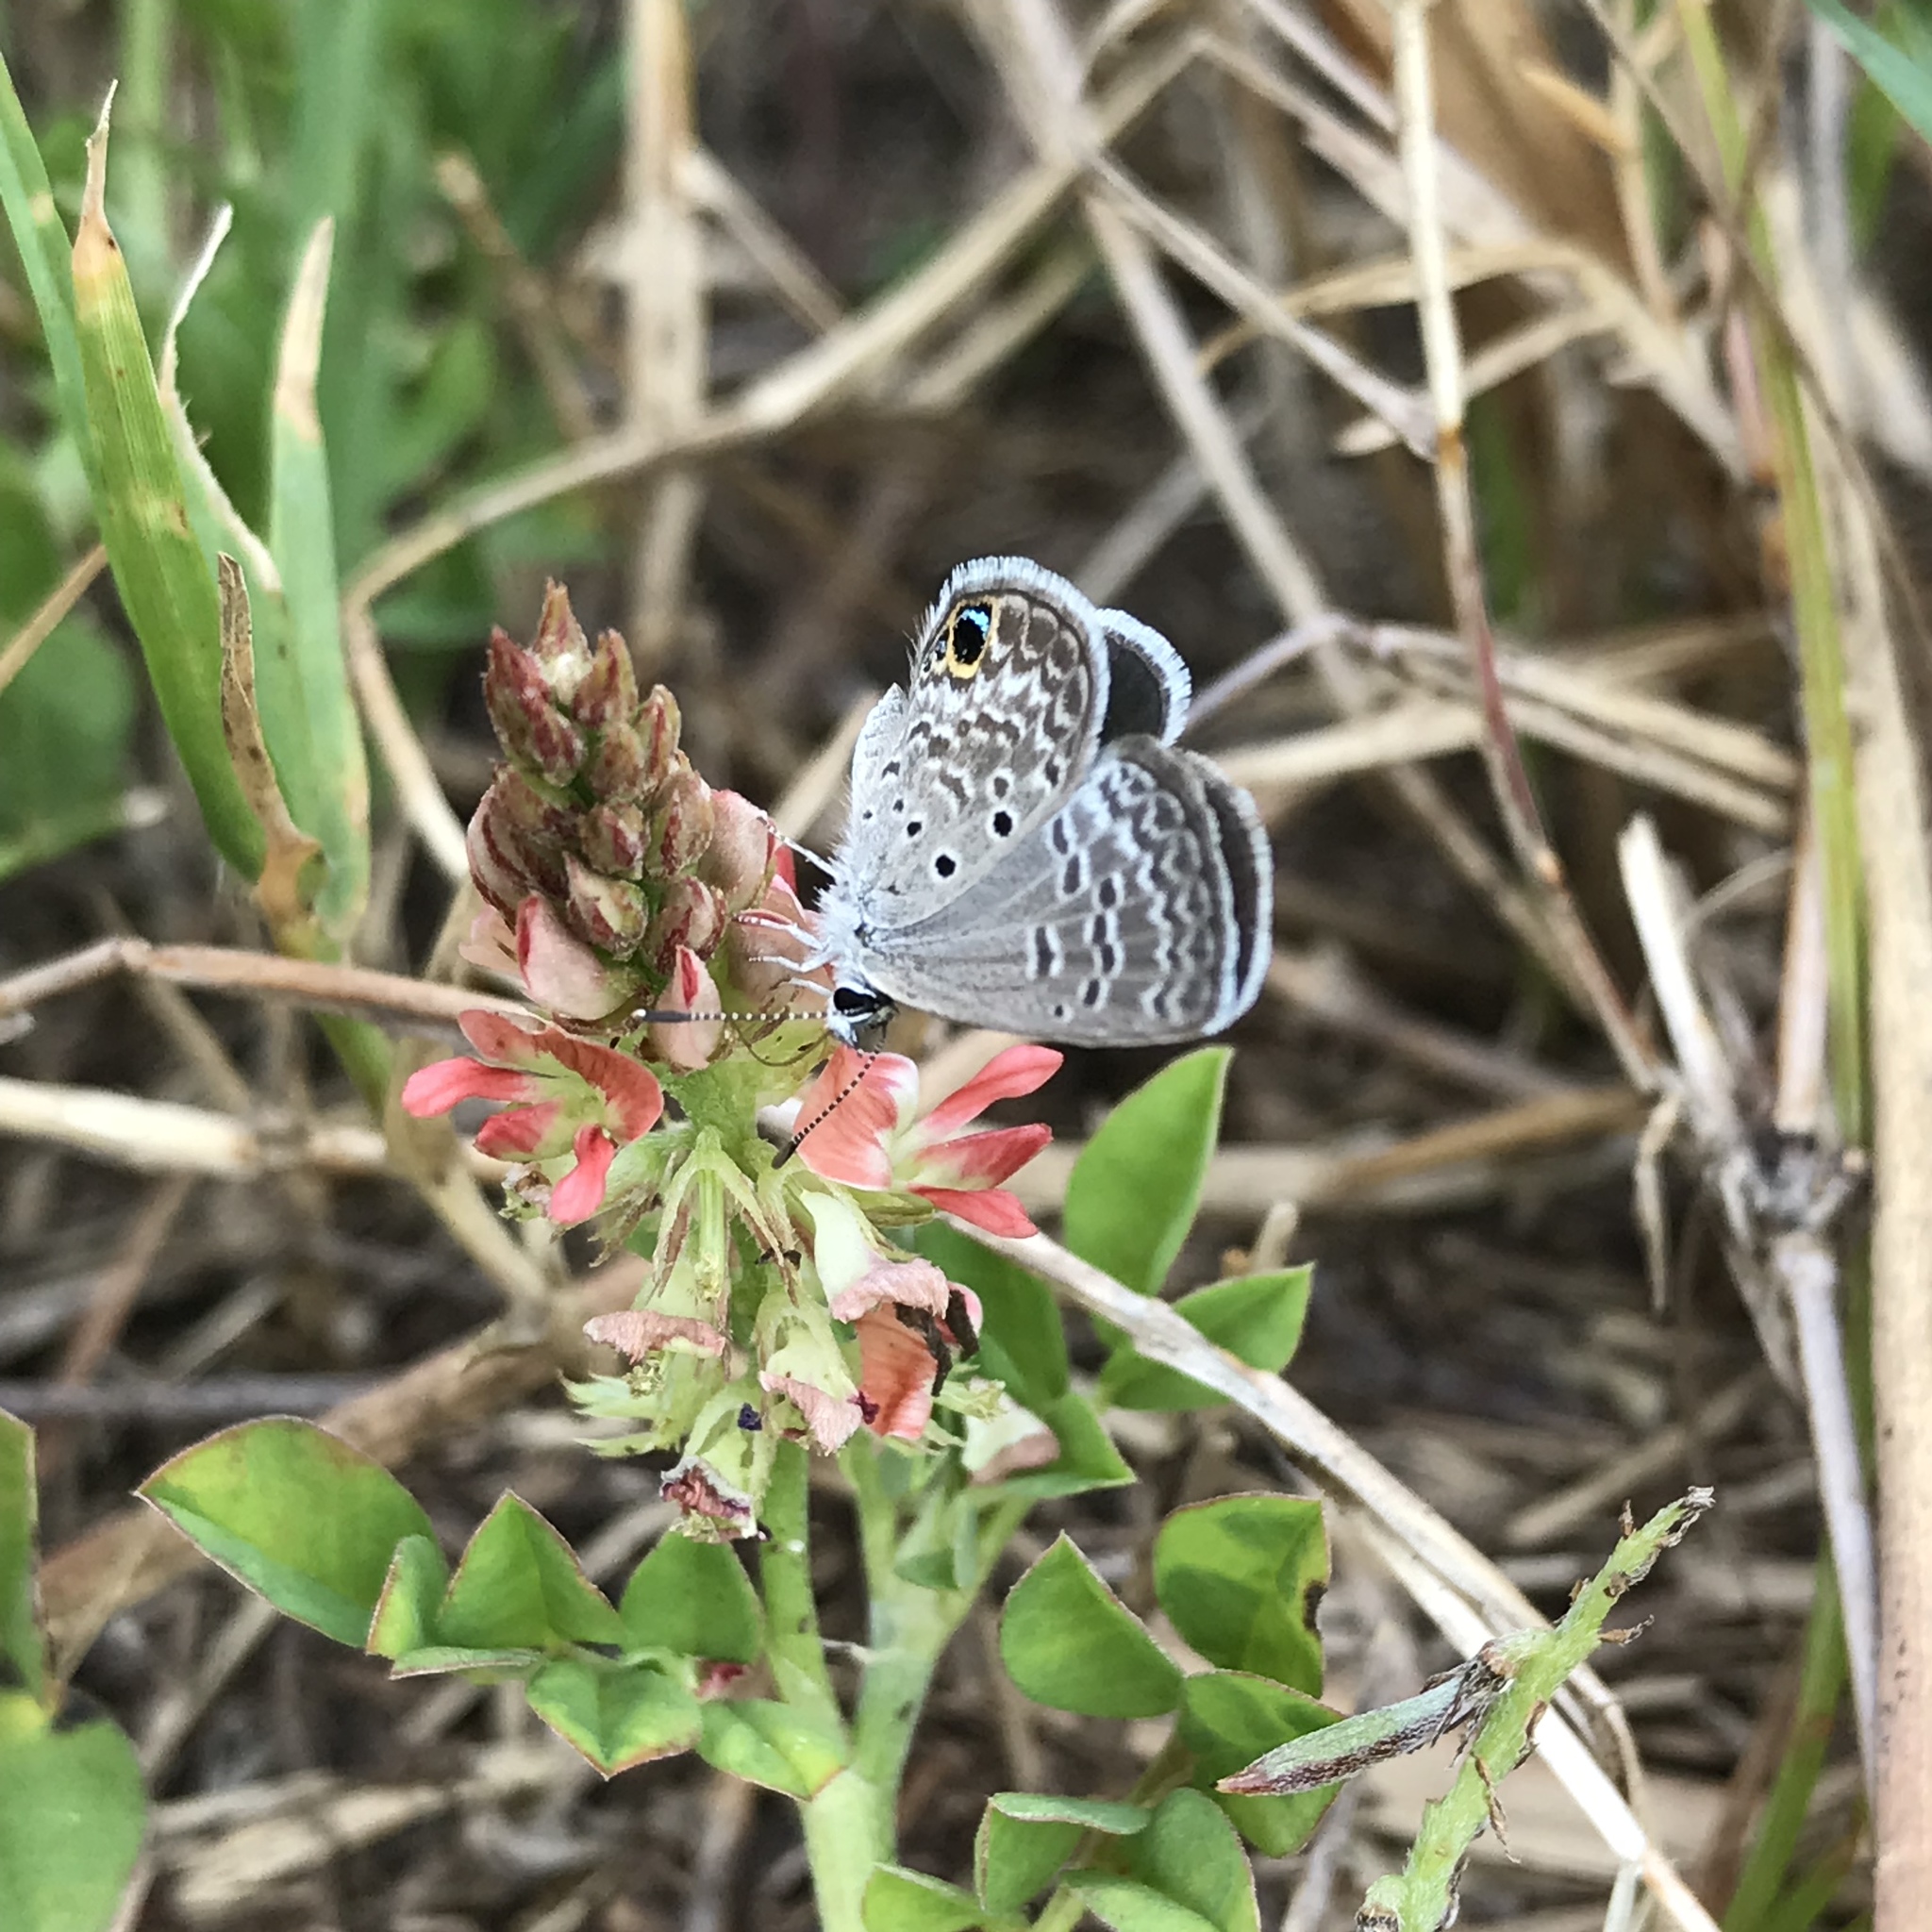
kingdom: Animalia
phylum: Arthropoda
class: Insecta
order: Lepidoptera
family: Lycaenidae
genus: Hemiargus
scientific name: Hemiargus ceraunus
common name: Ceraunus blue
